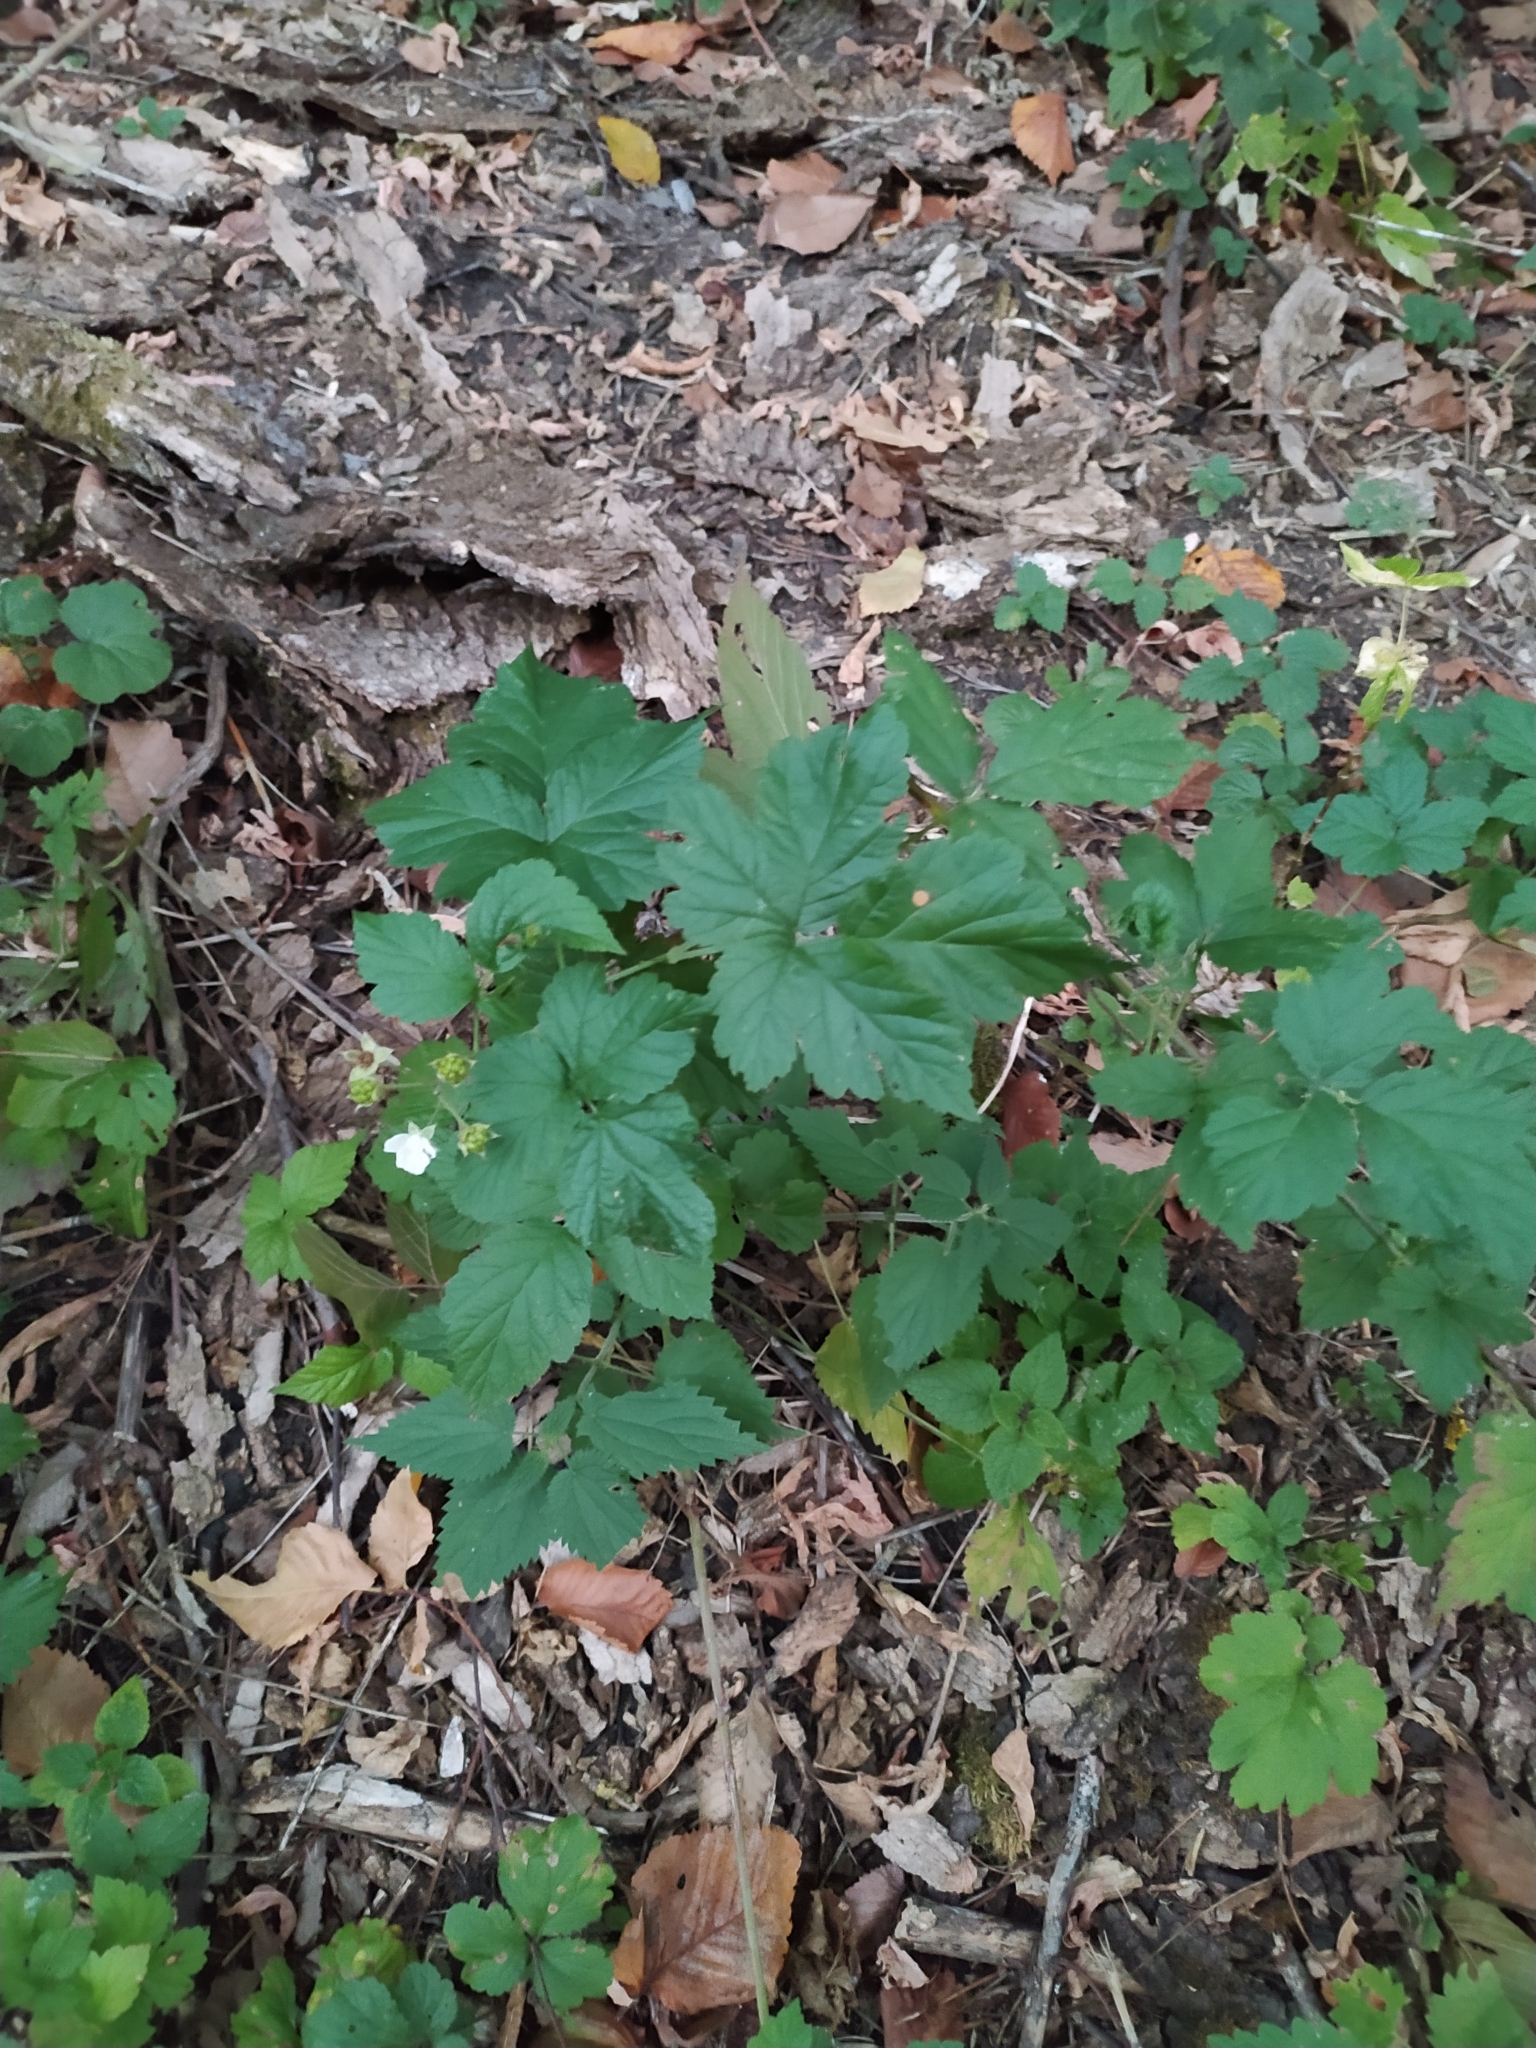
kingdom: Plantae
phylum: Tracheophyta
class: Magnoliopsida
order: Rosales
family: Rosaceae
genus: Rubus
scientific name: Rubus caesius
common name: Dewberry
